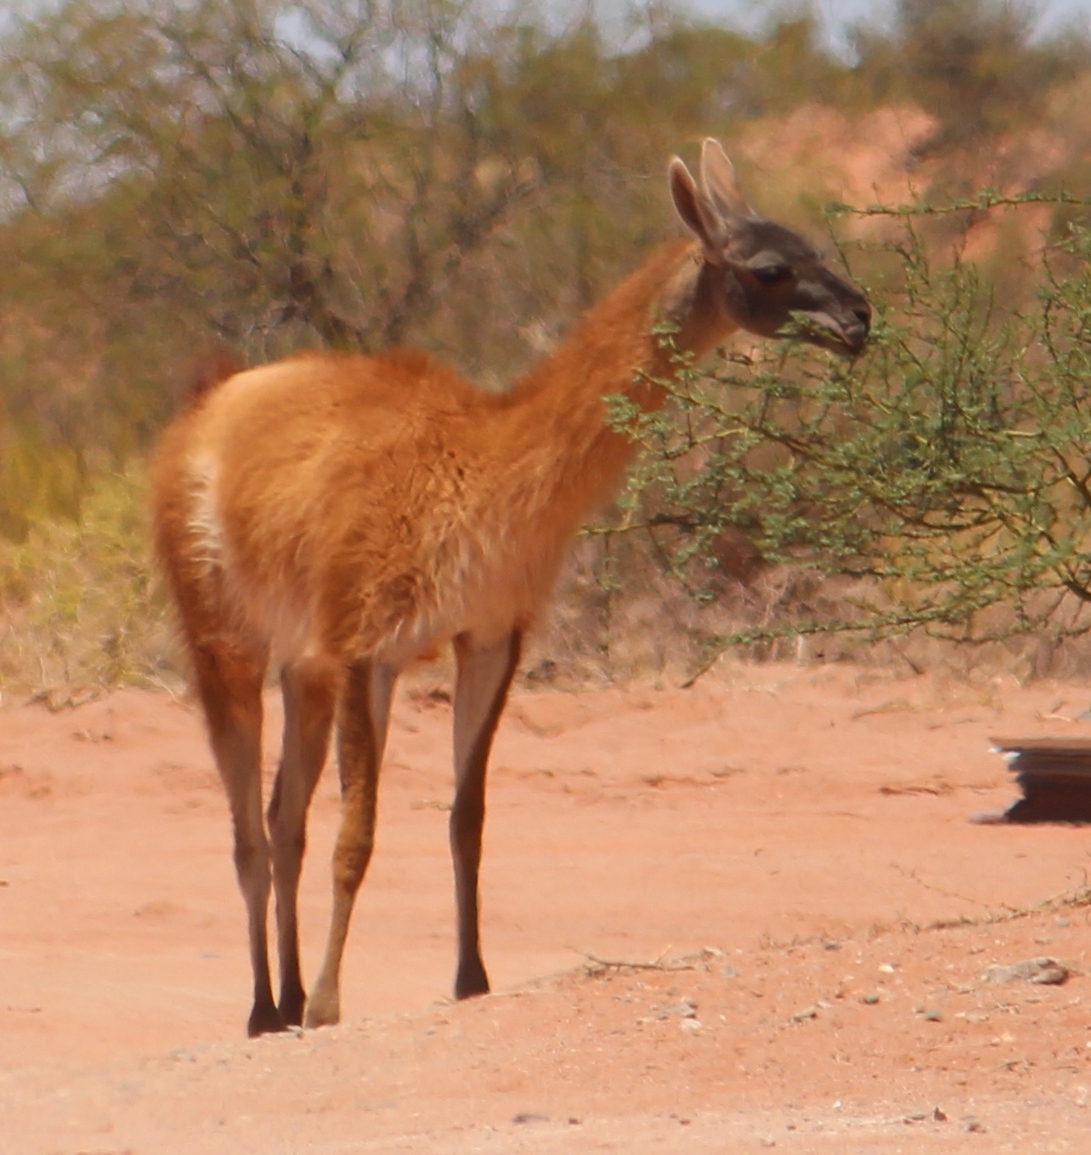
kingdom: Animalia
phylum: Chordata
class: Mammalia
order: Artiodactyla
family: Camelidae
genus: Lama
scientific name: Lama glama
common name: Llama
